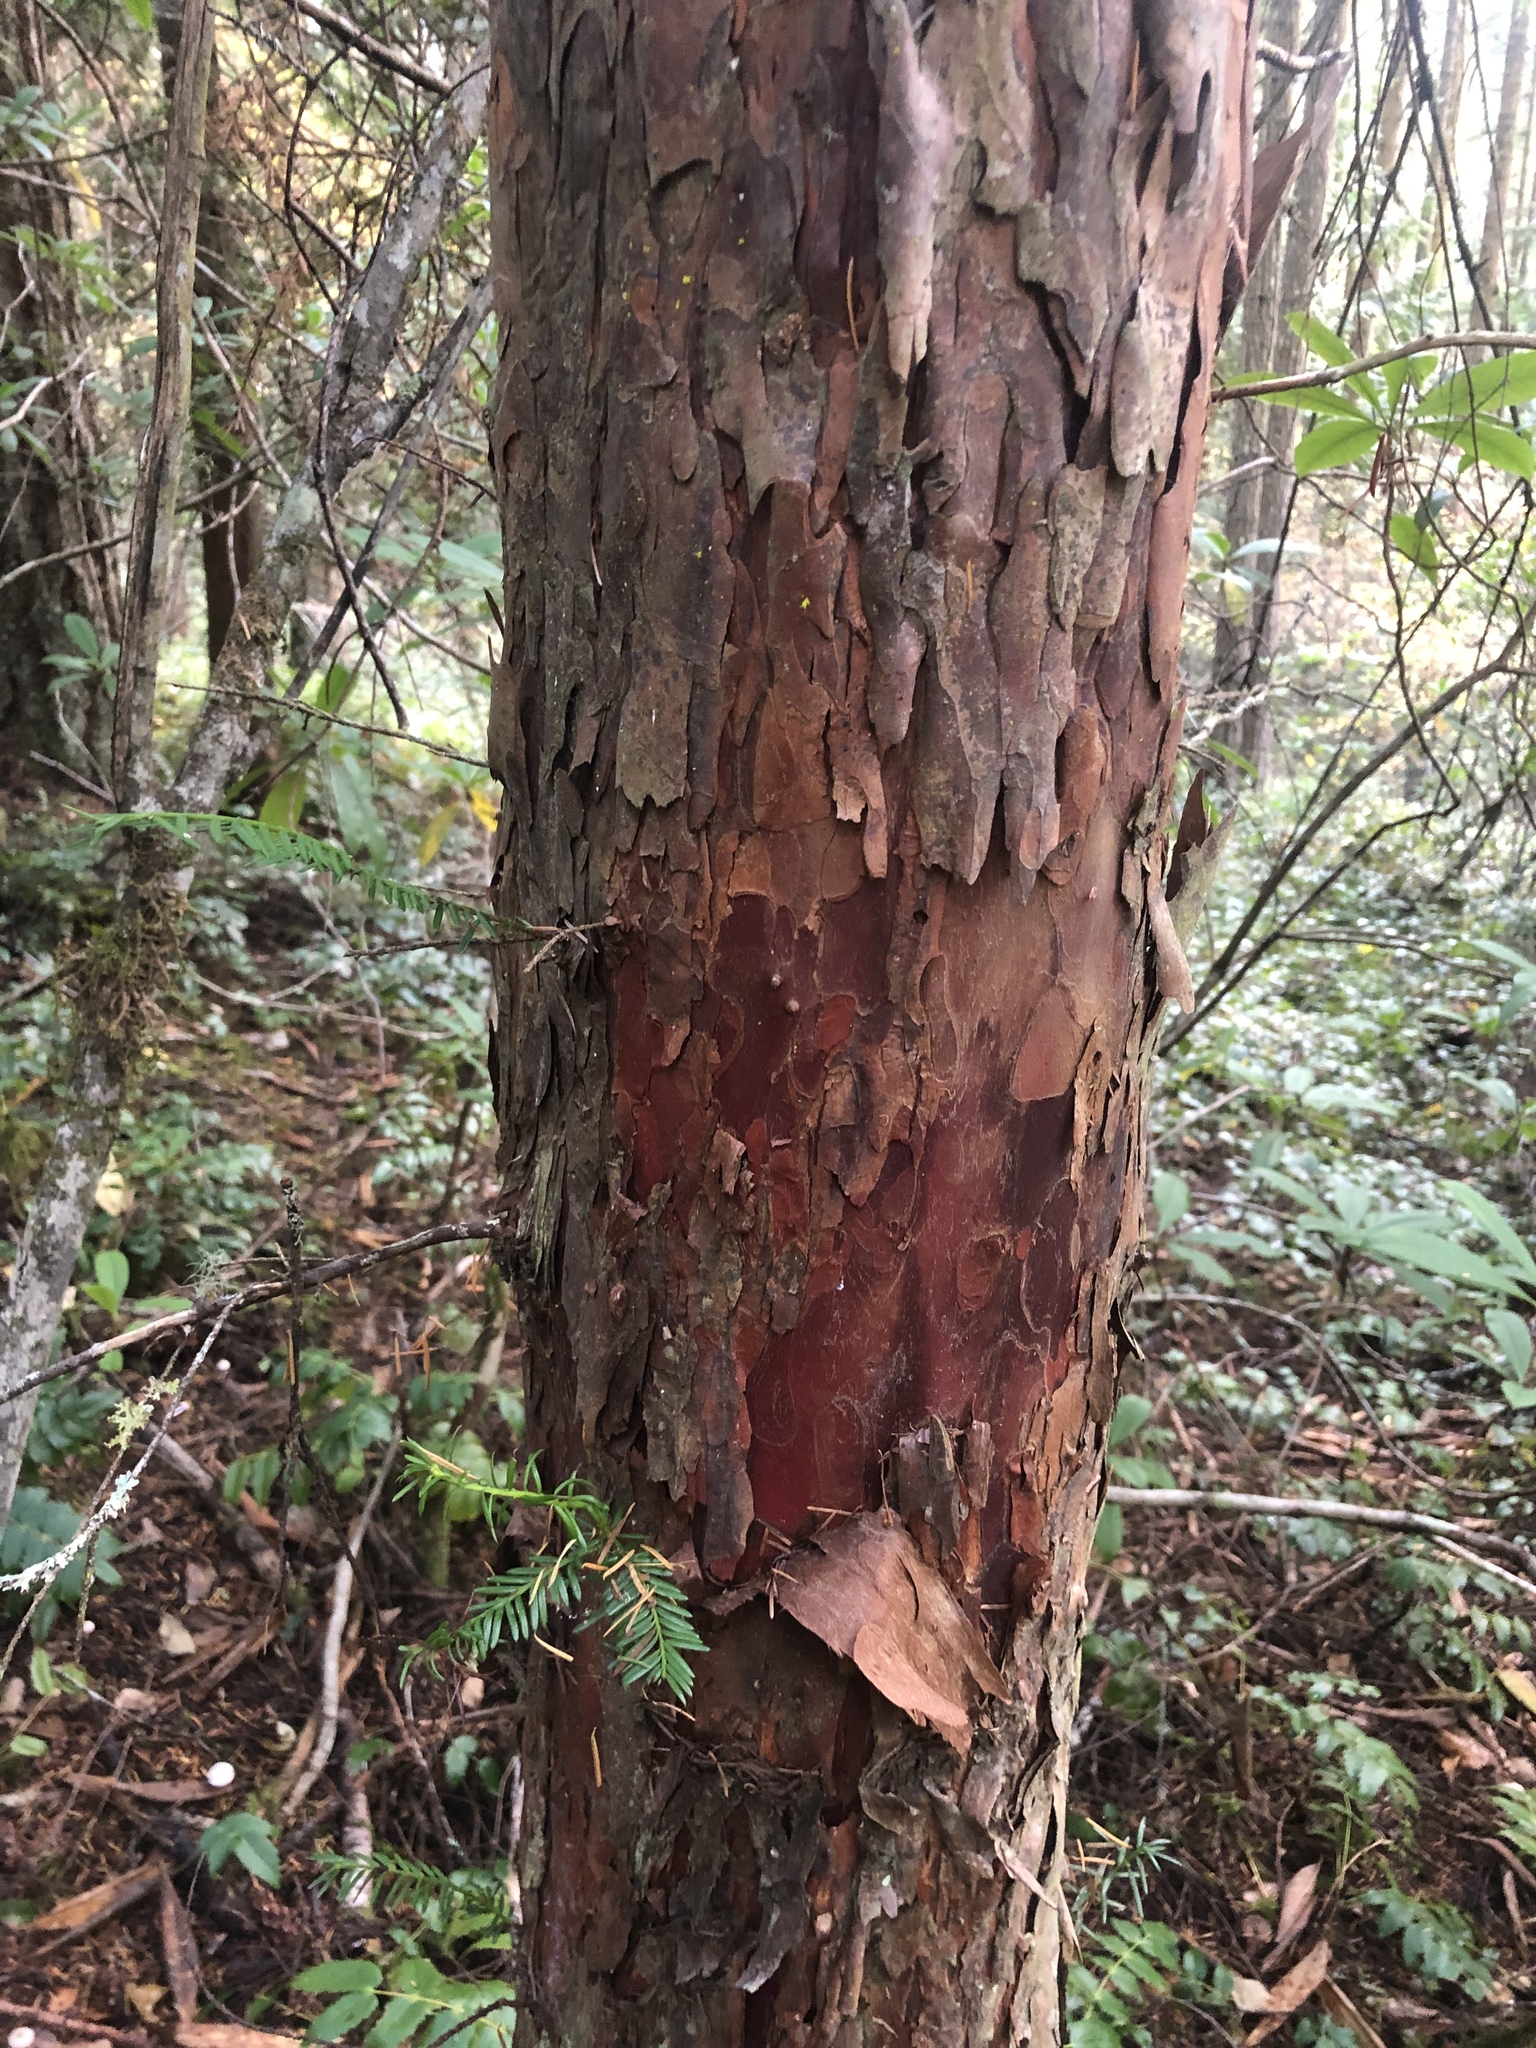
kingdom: Plantae
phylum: Tracheophyta
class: Pinopsida
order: Pinales
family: Taxaceae
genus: Taxus
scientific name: Taxus brevifolia
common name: Pacific yew
